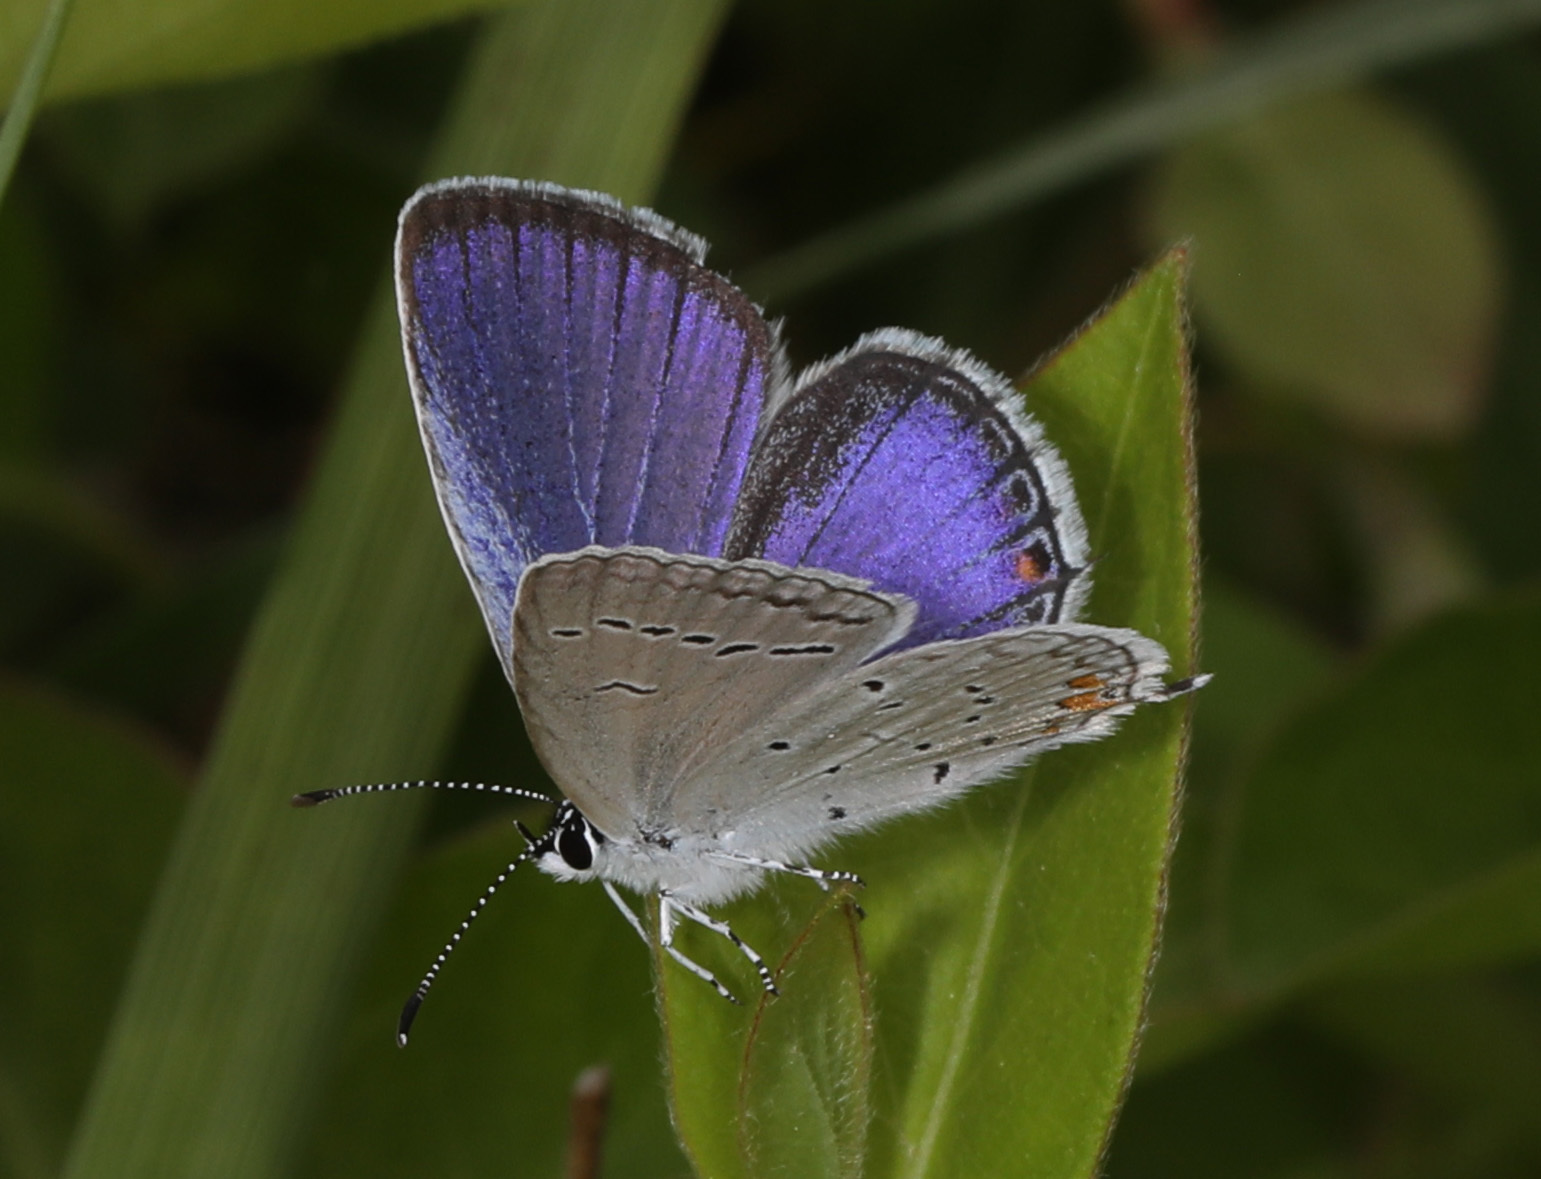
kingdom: Animalia
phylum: Arthropoda
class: Insecta
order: Lepidoptera
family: Lycaenidae
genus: Elkalyce
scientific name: Elkalyce comyntas
